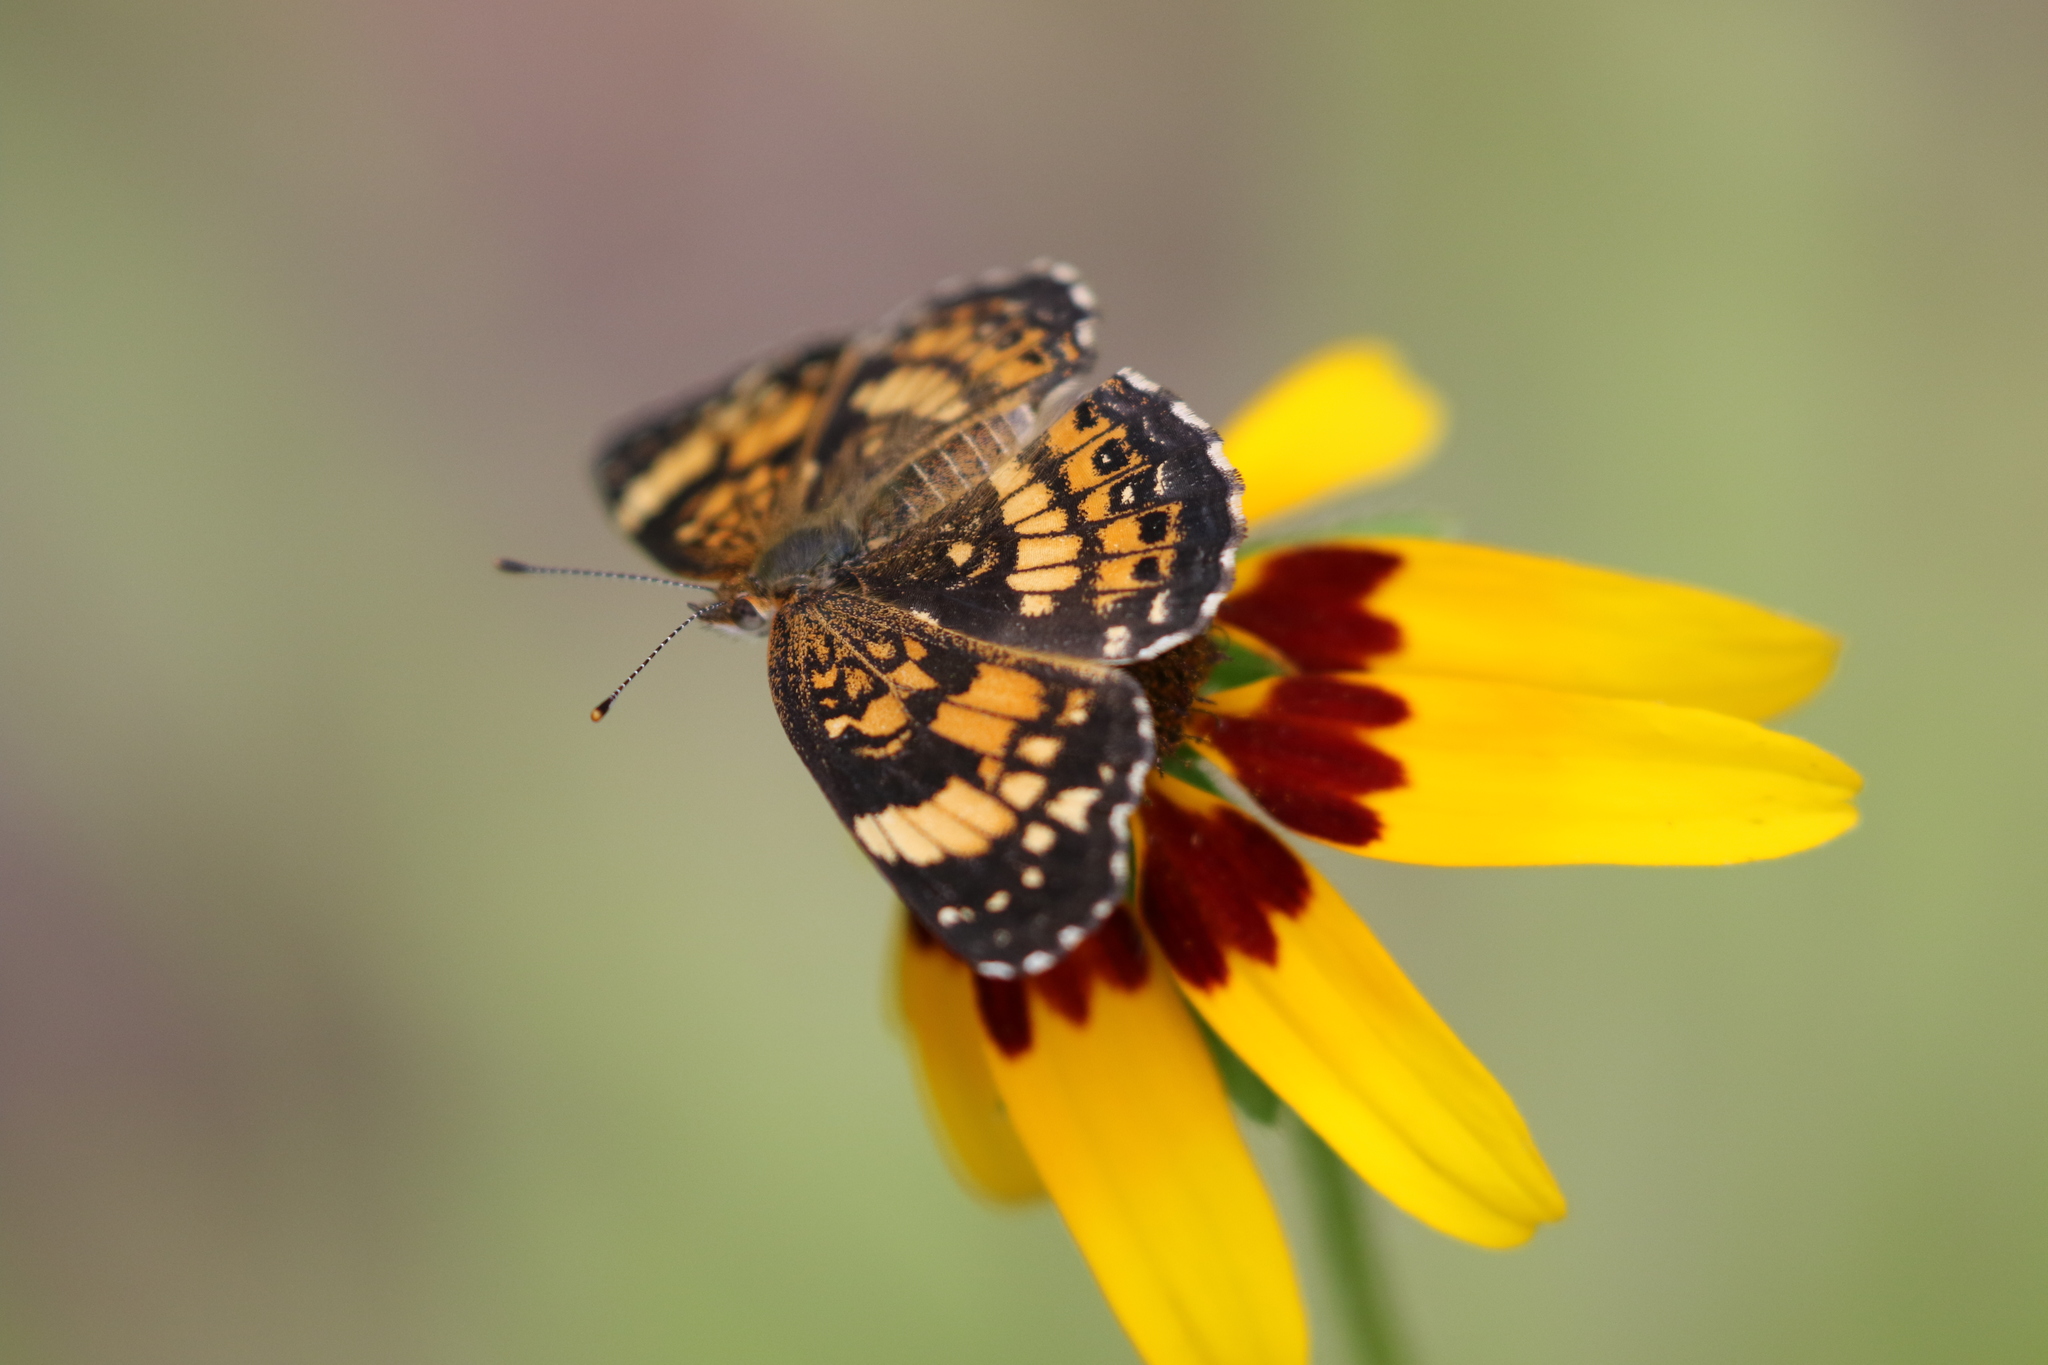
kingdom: Animalia
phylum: Arthropoda
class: Insecta
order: Lepidoptera
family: Nymphalidae
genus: Chlosyne
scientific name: Chlosyne nycteis
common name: Silvery checkerspot
